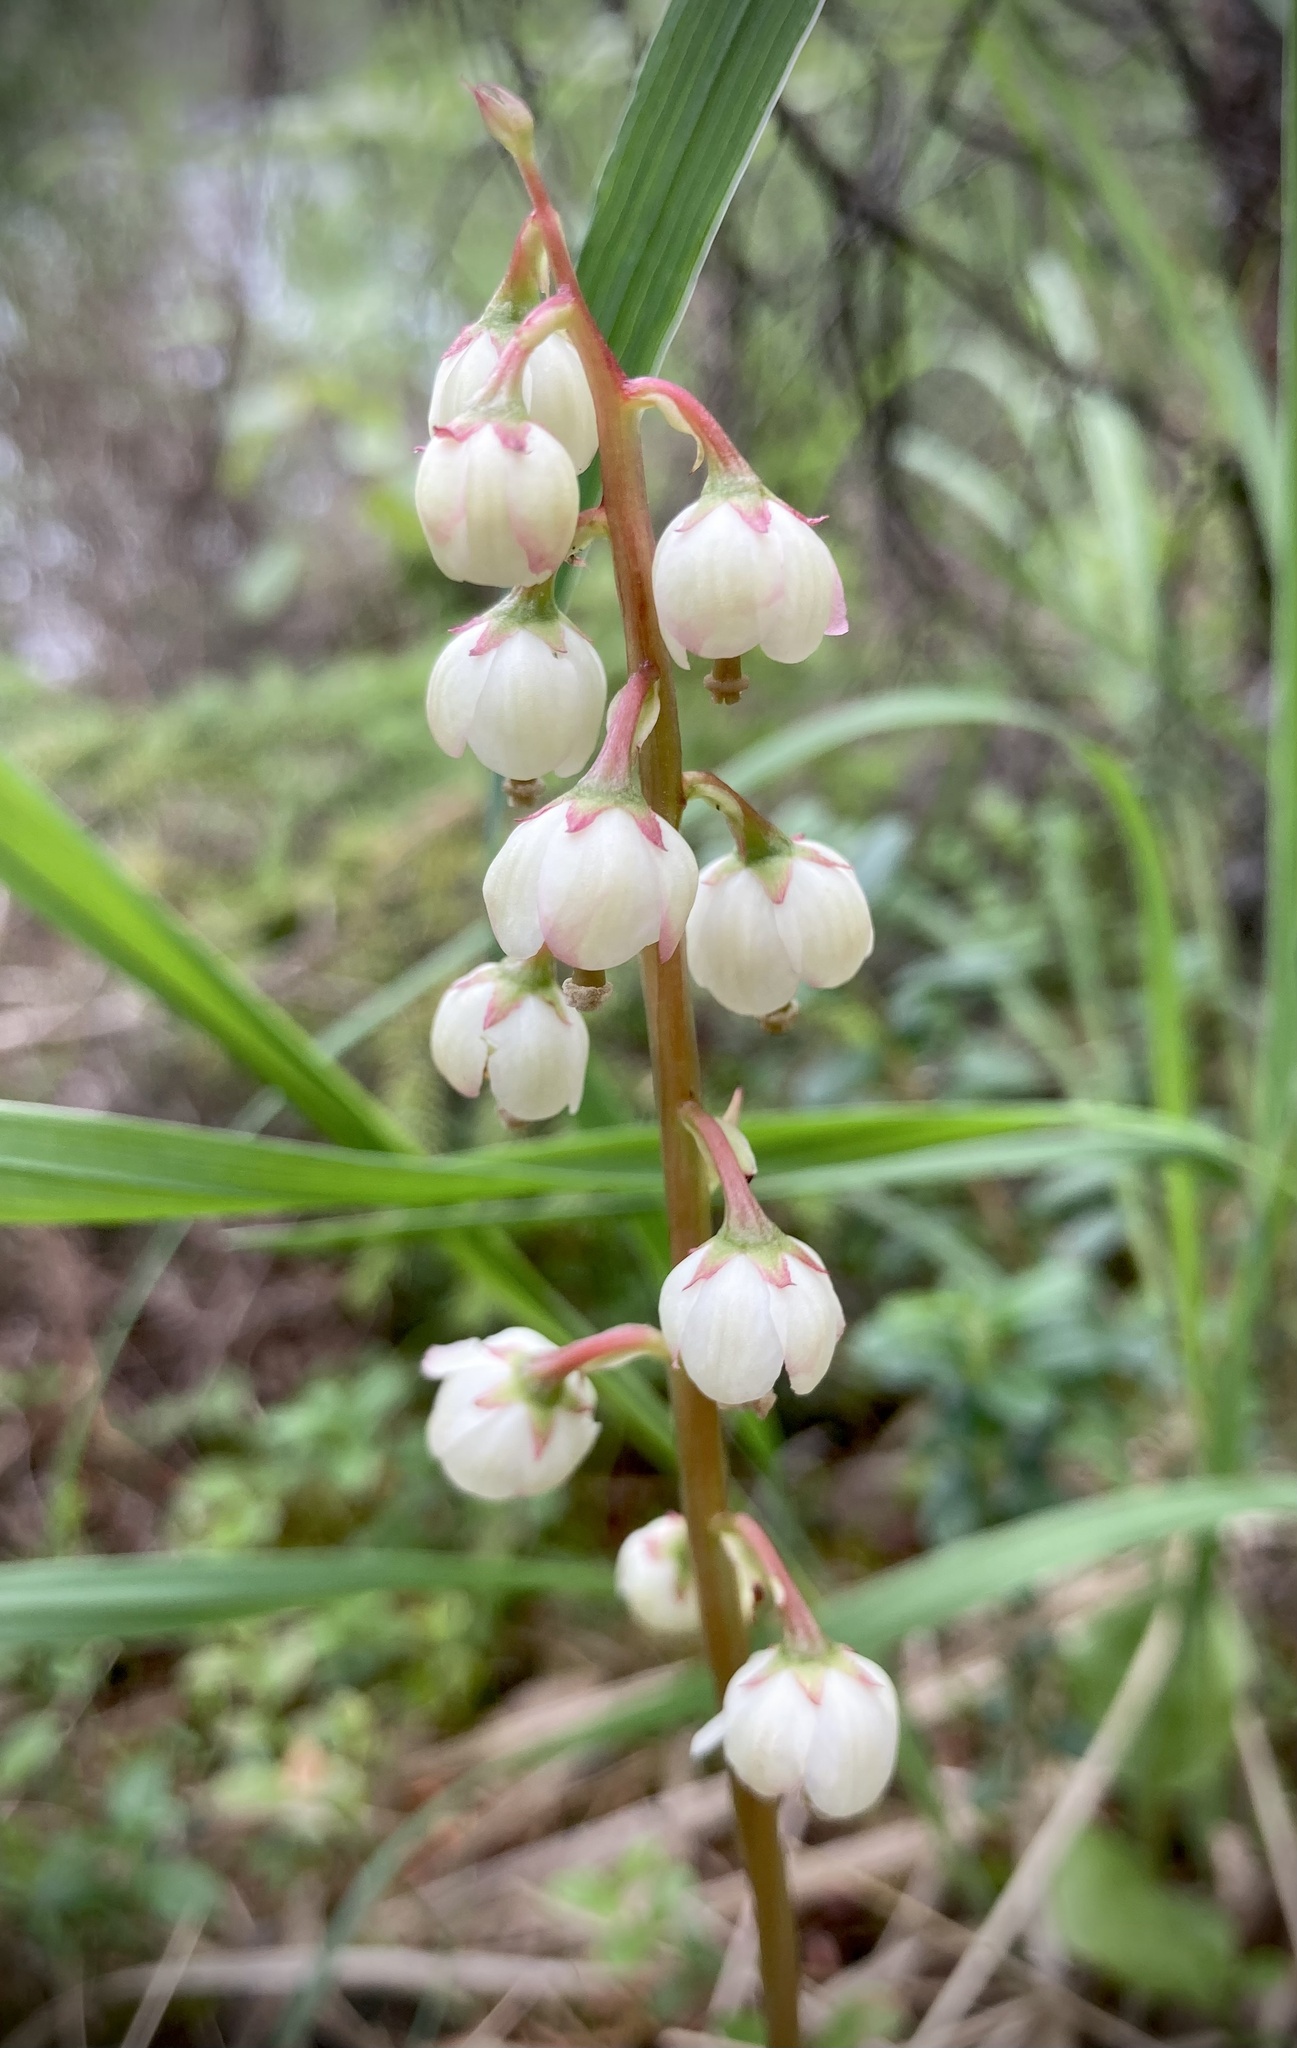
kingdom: Plantae
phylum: Tracheophyta
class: Magnoliopsida
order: Ericales
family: Ericaceae
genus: Pyrola
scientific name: Pyrola media
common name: Intermediate wintergreen
